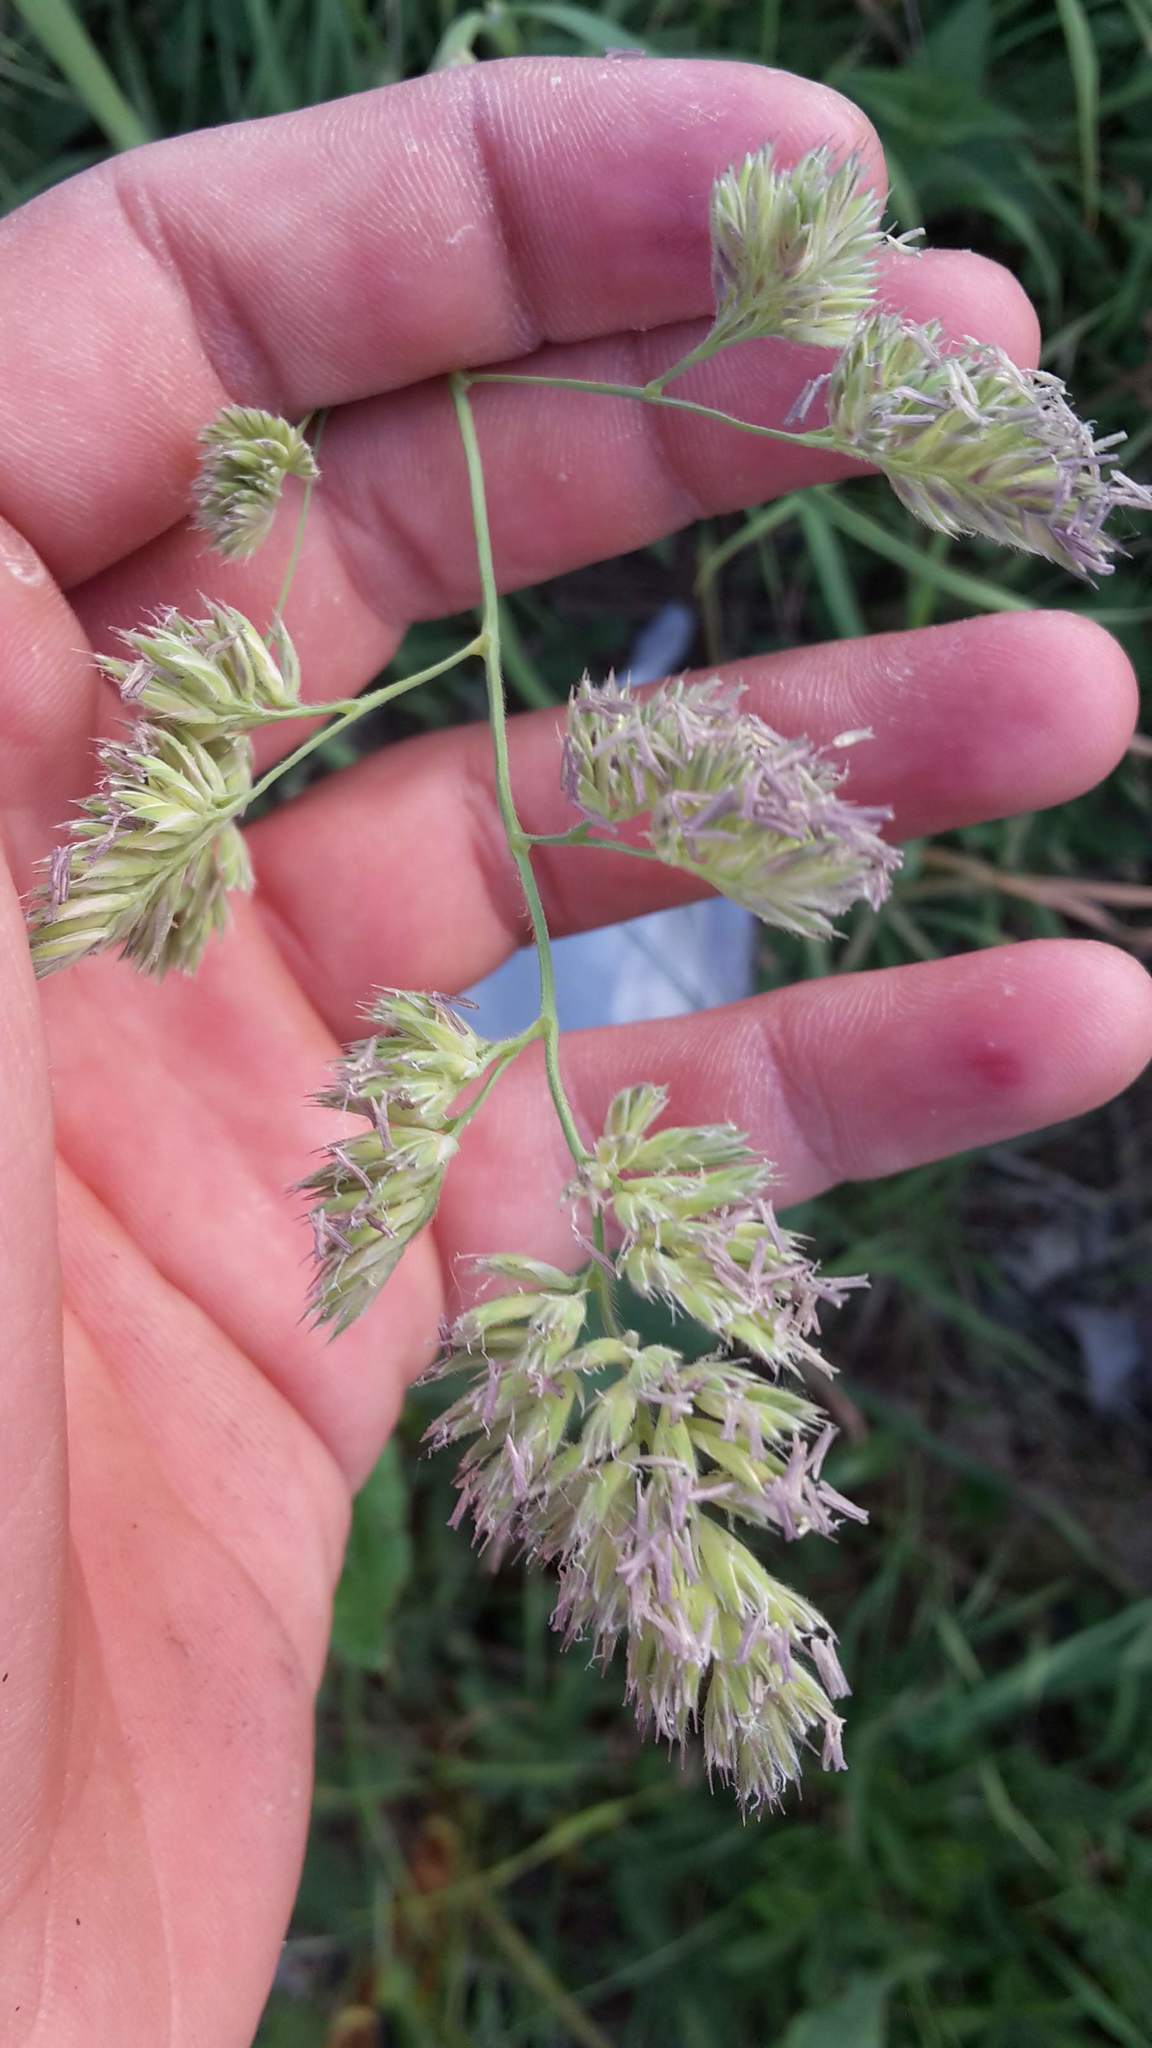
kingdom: Plantae
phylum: Tracheophyta
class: Liliopsida
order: Poales
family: Poaceae
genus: Dactylis
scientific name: Dactylis glomerata
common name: Orchardgrass
